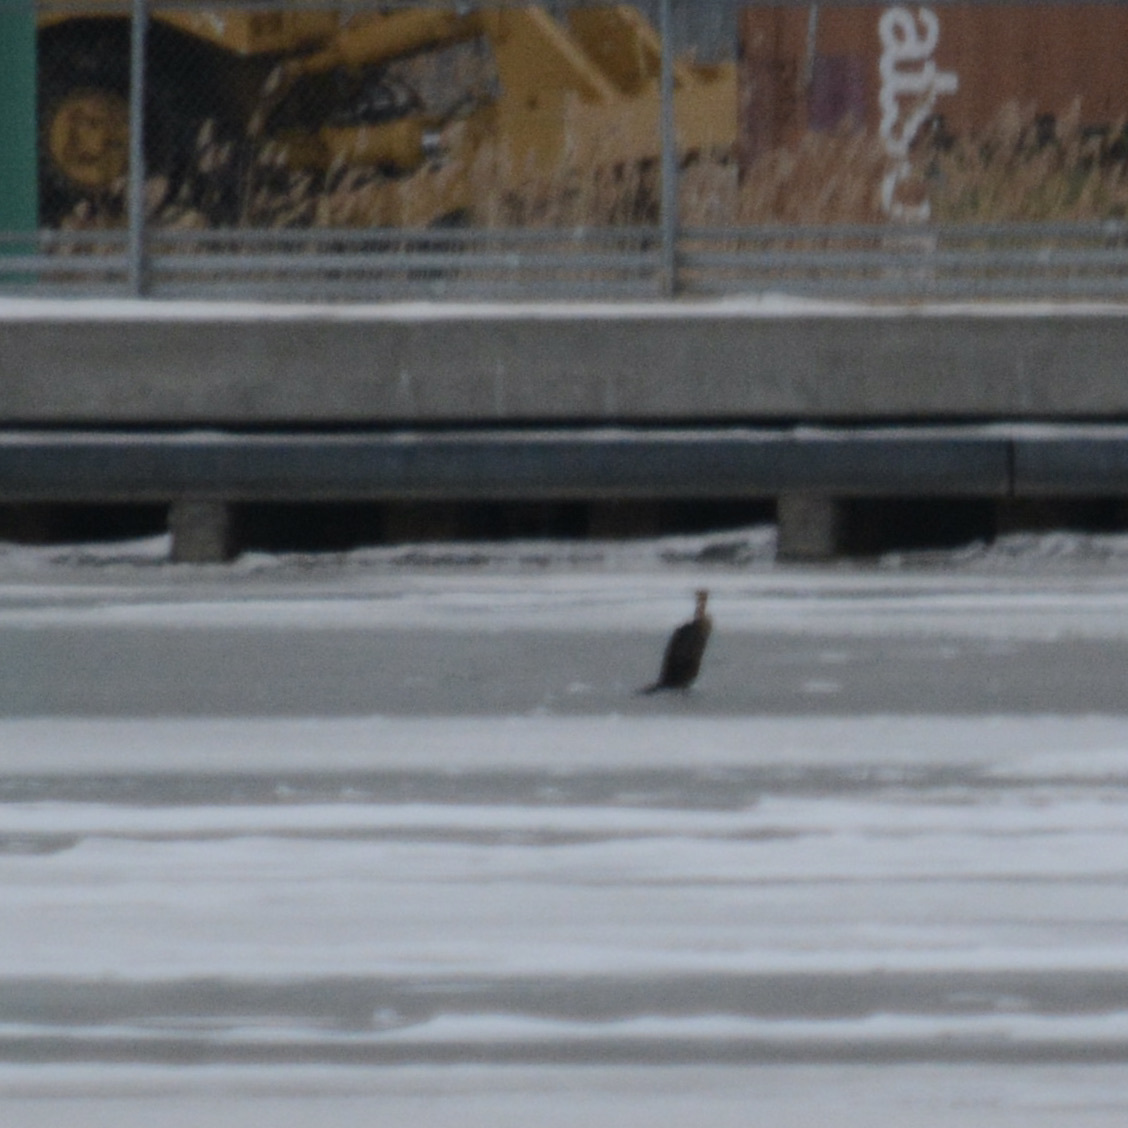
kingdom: Animalia
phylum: Chordata
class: Aves
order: Suliformes
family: Phalacrocoracidae
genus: Phalacrocorax
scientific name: Phalacrocorax auritus
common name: Double-crested cormorant
